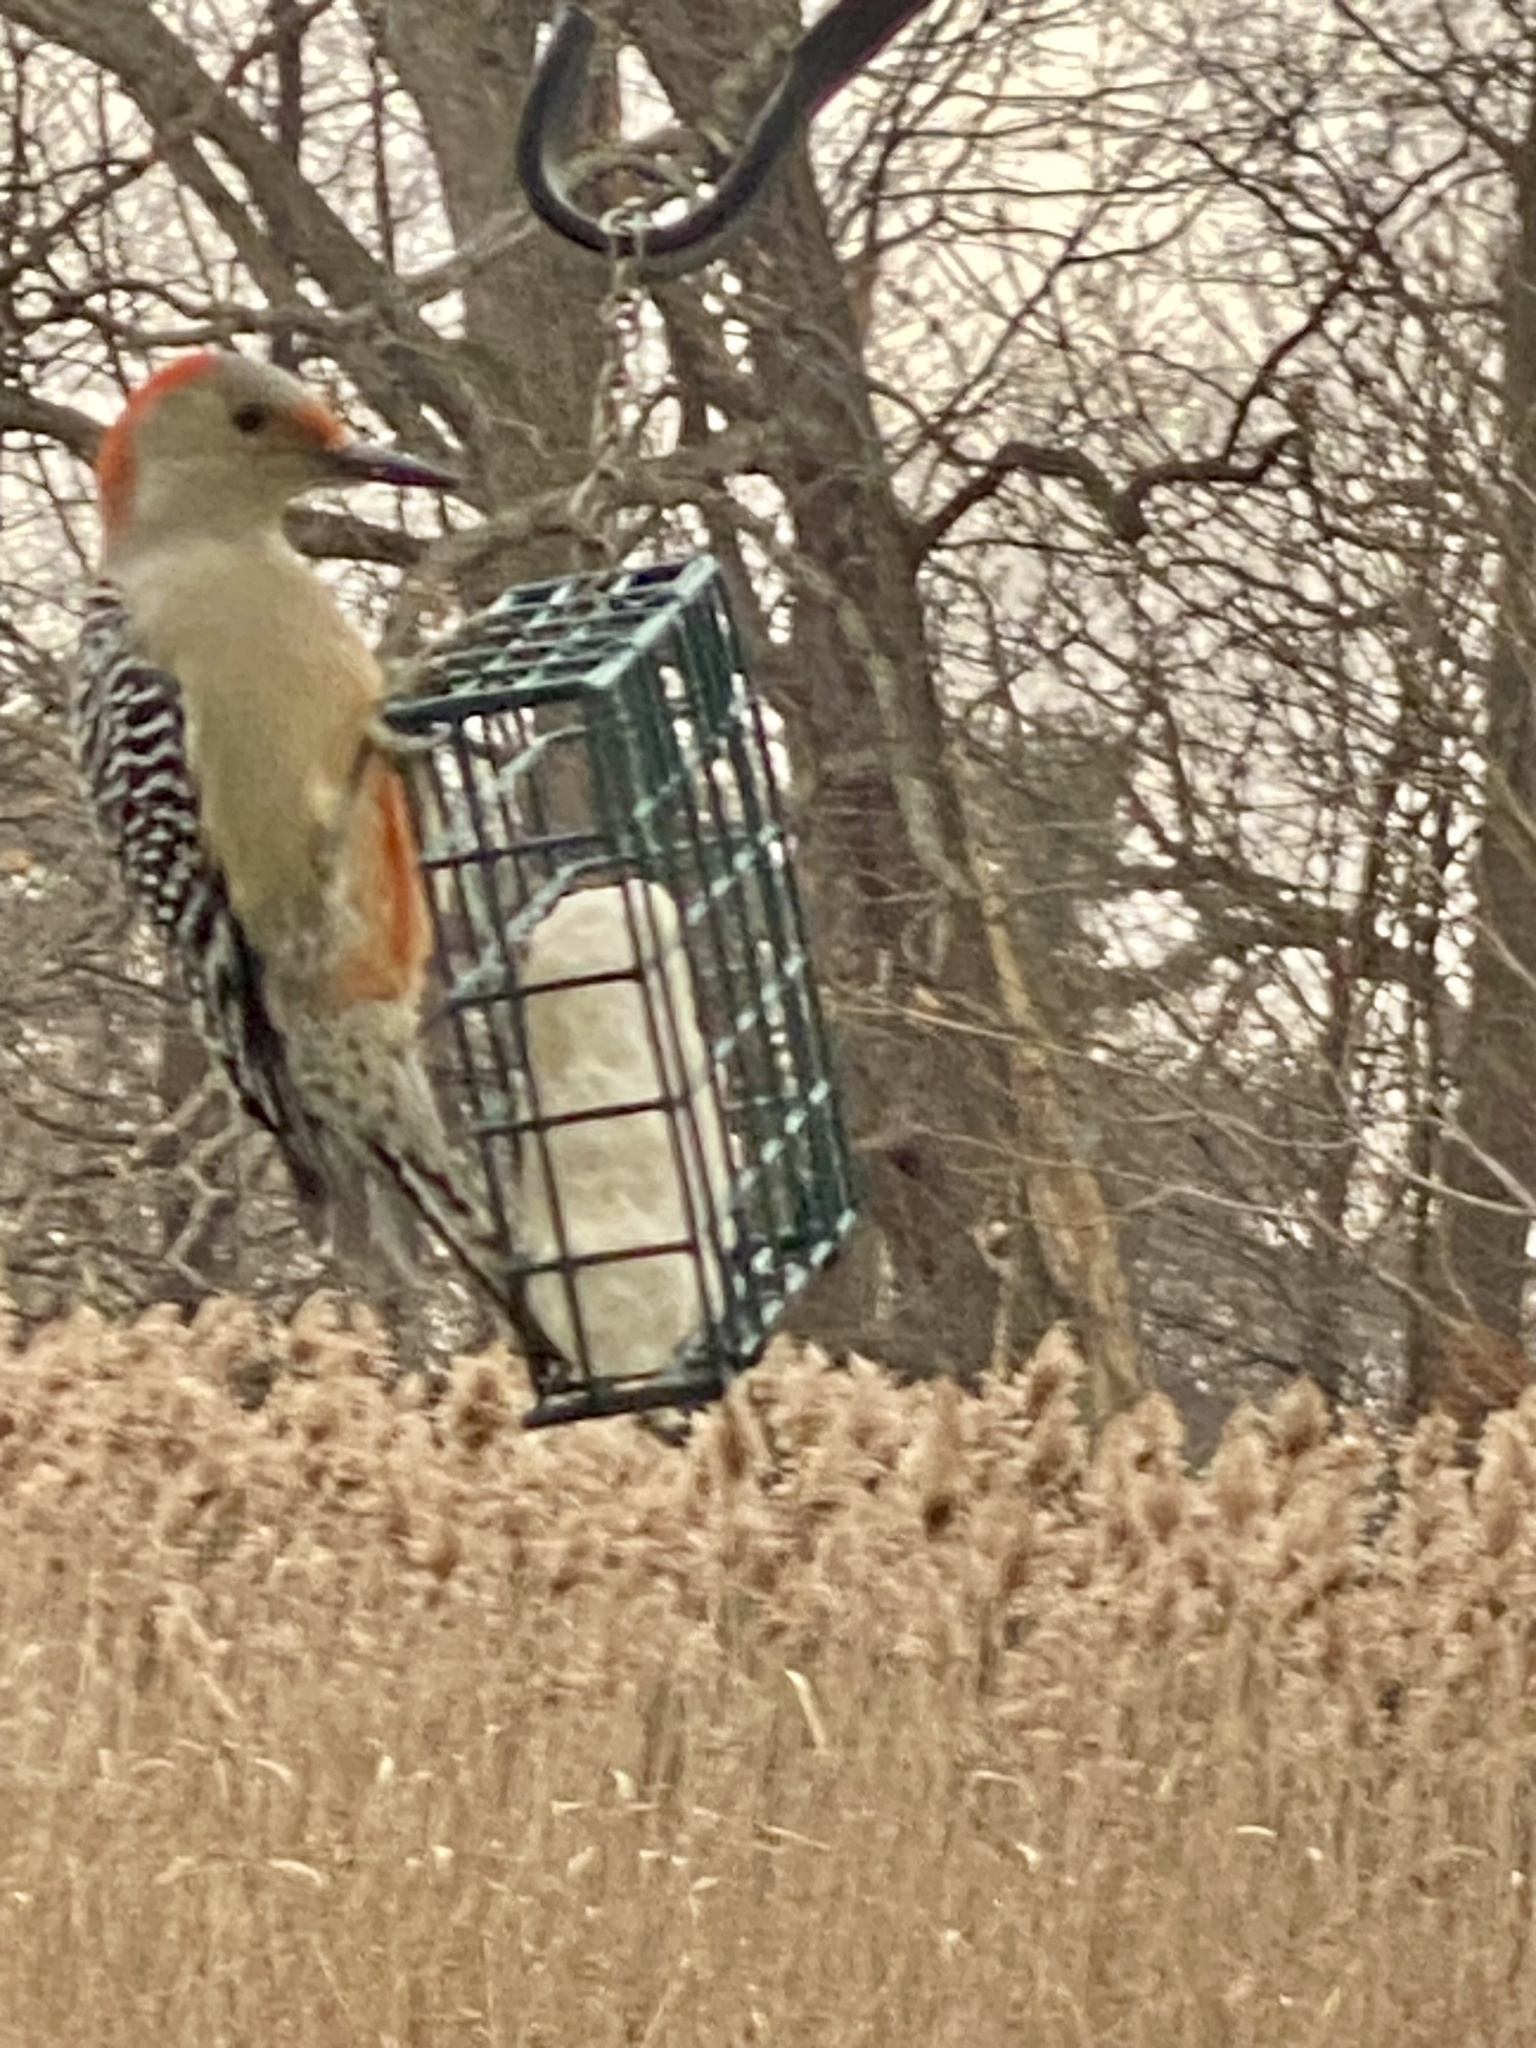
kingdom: Animalia
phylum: Chordata
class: Aves
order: Piciformes
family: Picidae
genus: Melanerpes
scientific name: Melanerpes carolinus
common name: Red-bellied woodpecker
